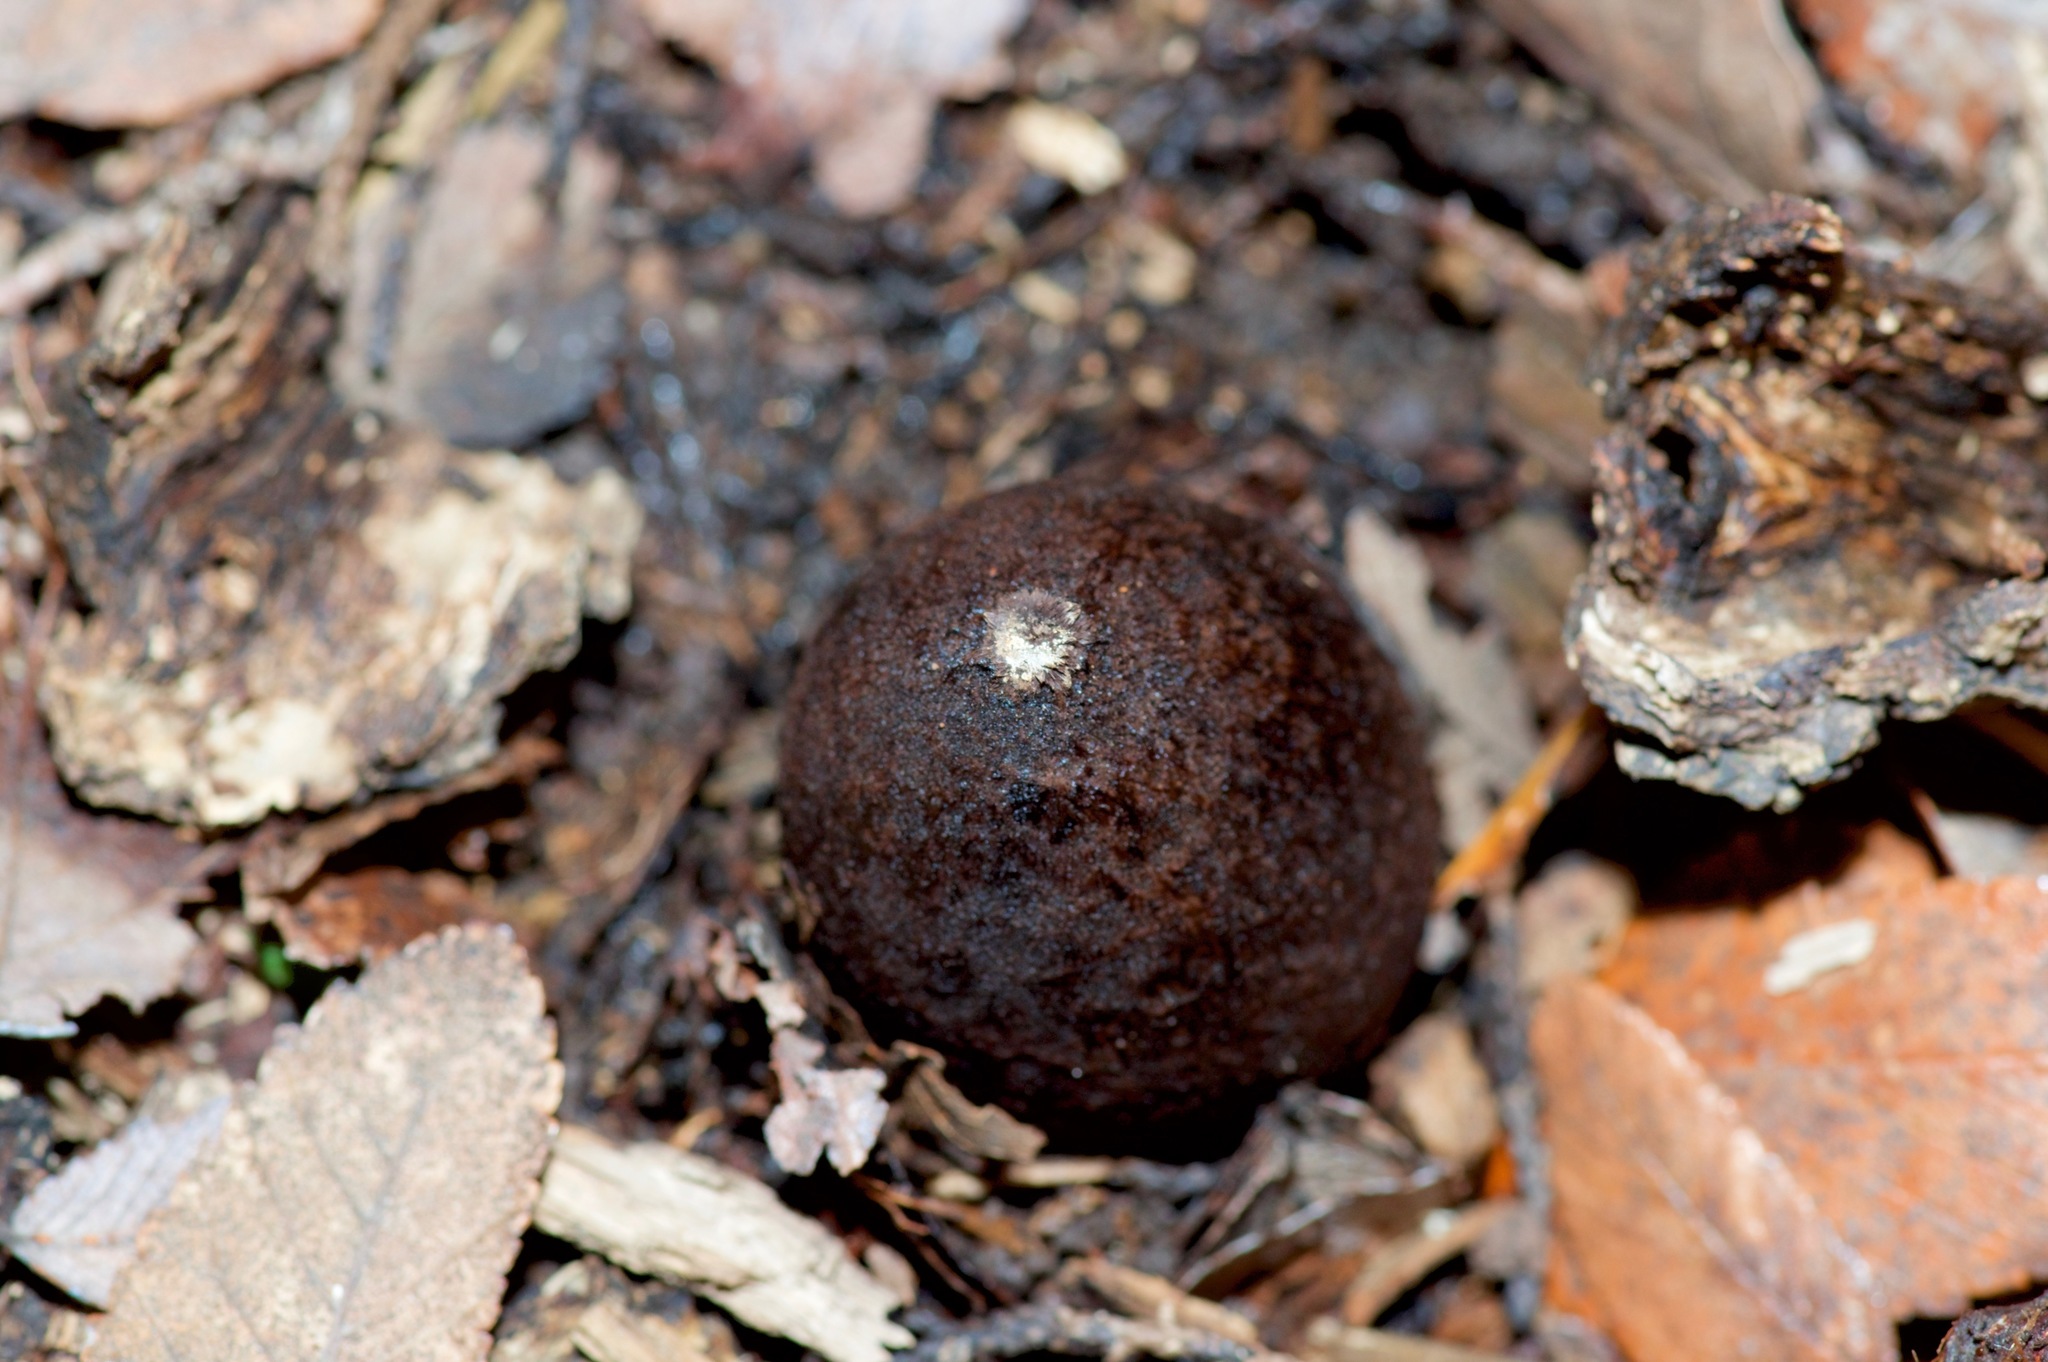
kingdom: Fungi
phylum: Ascomycota
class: Pezizomycetes
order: Pezizales
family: Chorioactidaceae
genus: Chorioactis
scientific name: Chorioactis geaster
